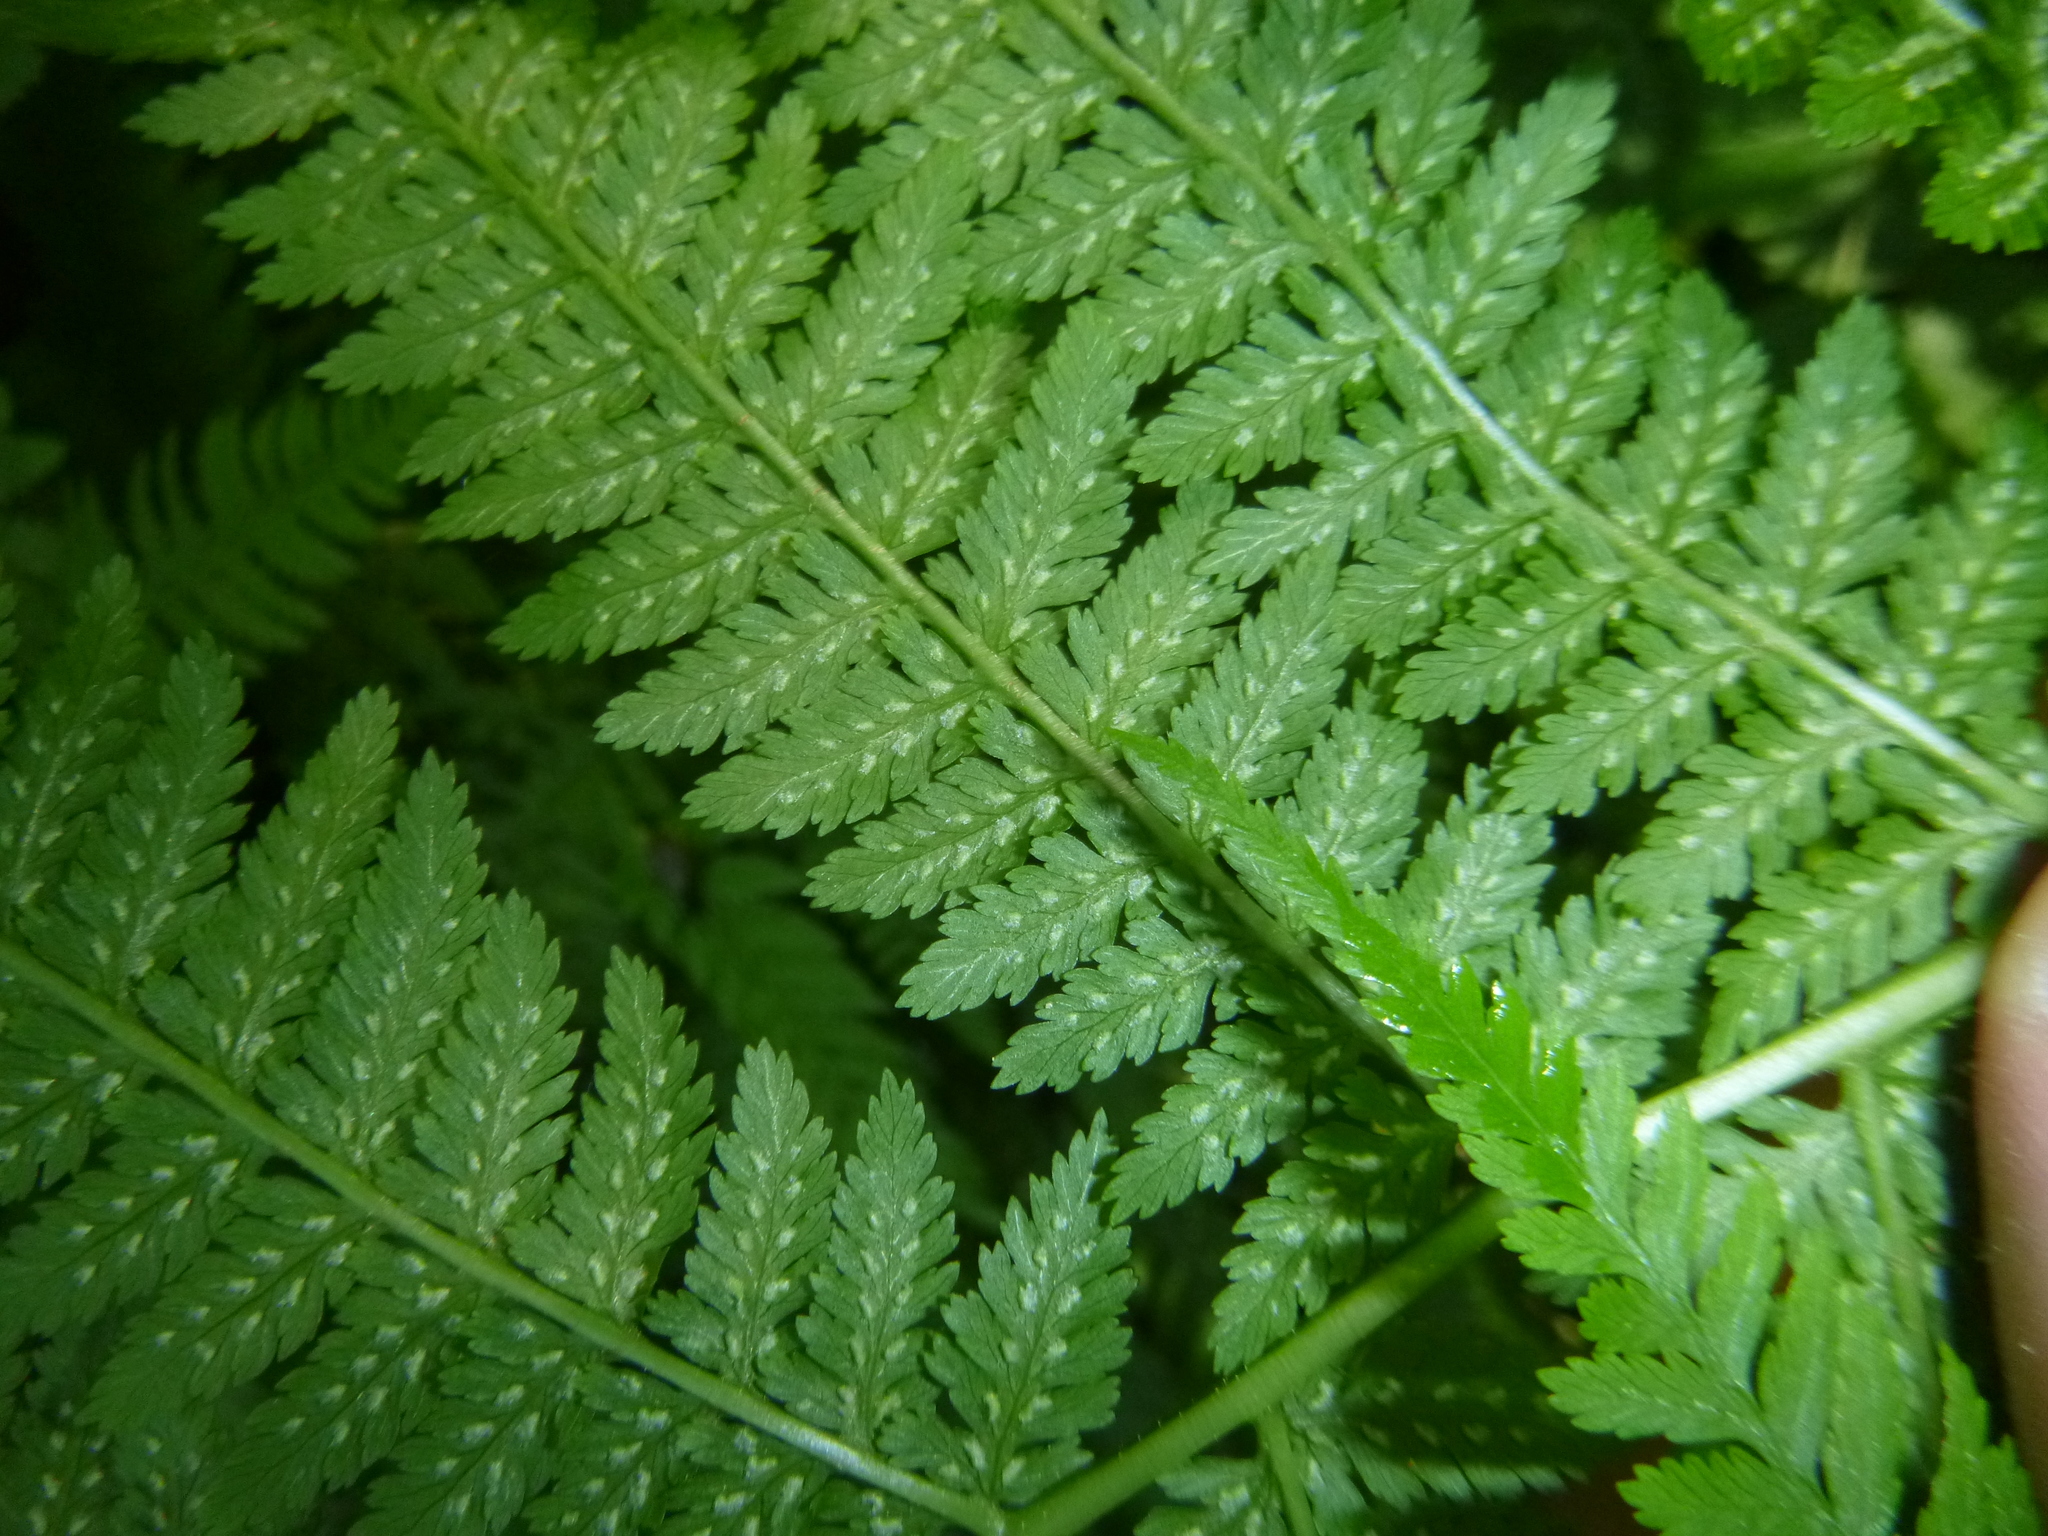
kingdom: Plantae
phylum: Tracheophyta
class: Polypodiopsida
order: Polypodiales
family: Athyriaceae
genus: Athyrium
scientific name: Athyrium filix-femina
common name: Lady fern
